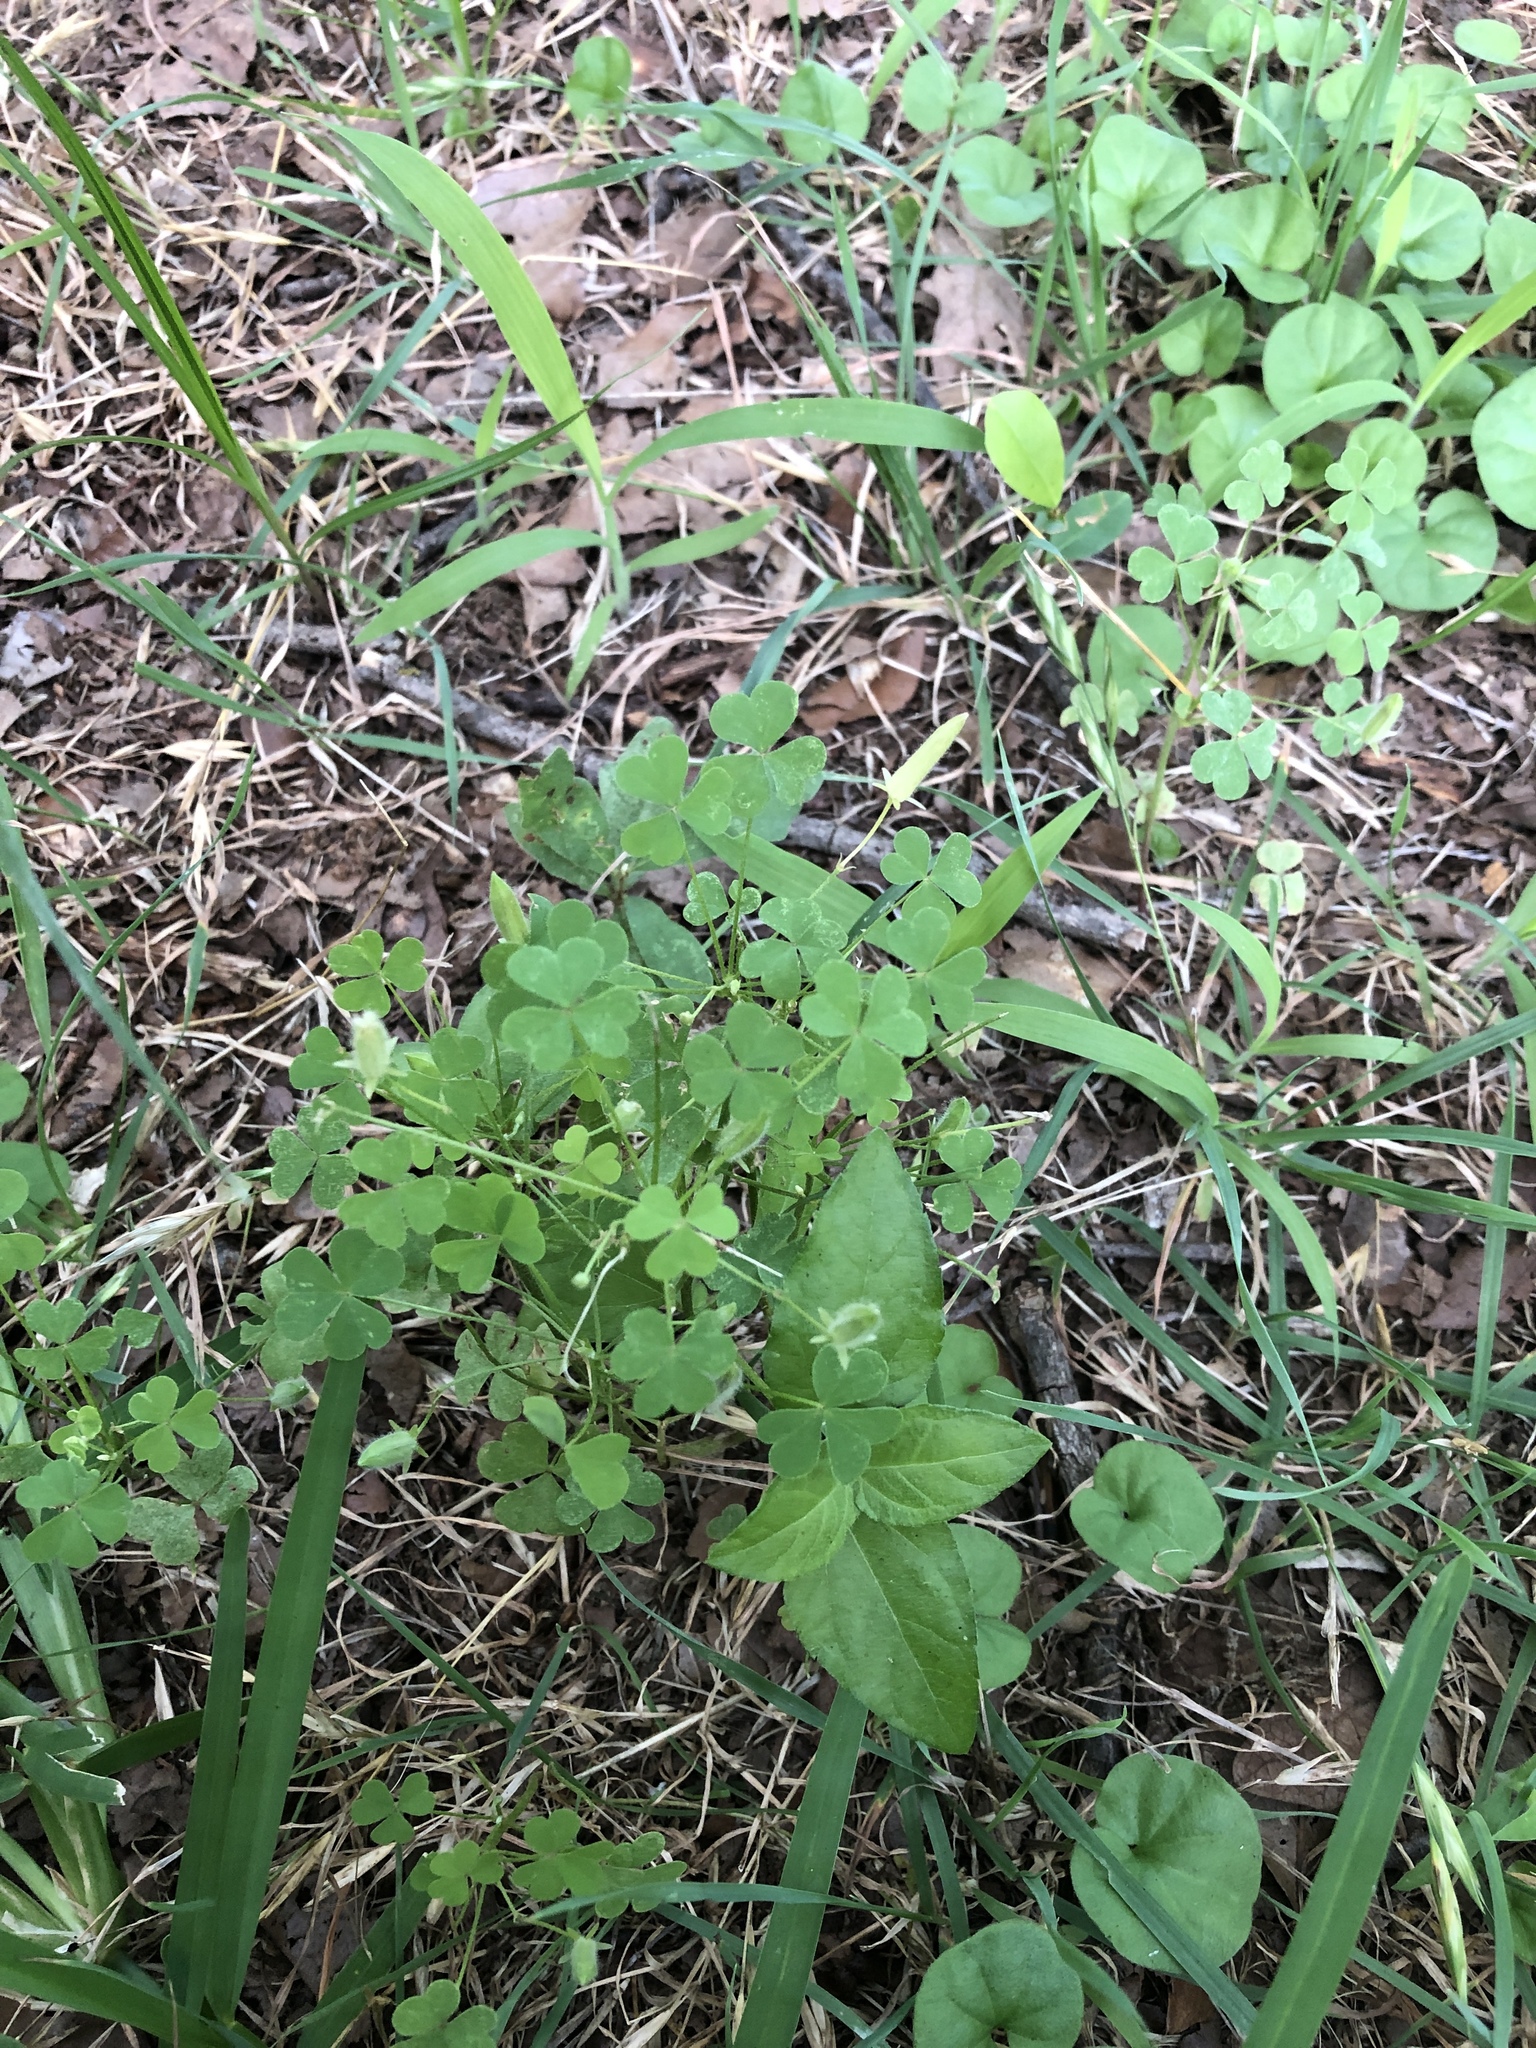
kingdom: Plantae
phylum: Tracheophyta
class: Magnoliopsida
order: Oxalidales
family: Oxalidaceae
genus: Oxalis
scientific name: Oxalis dillenii
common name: Sussex yellow-sorrel
